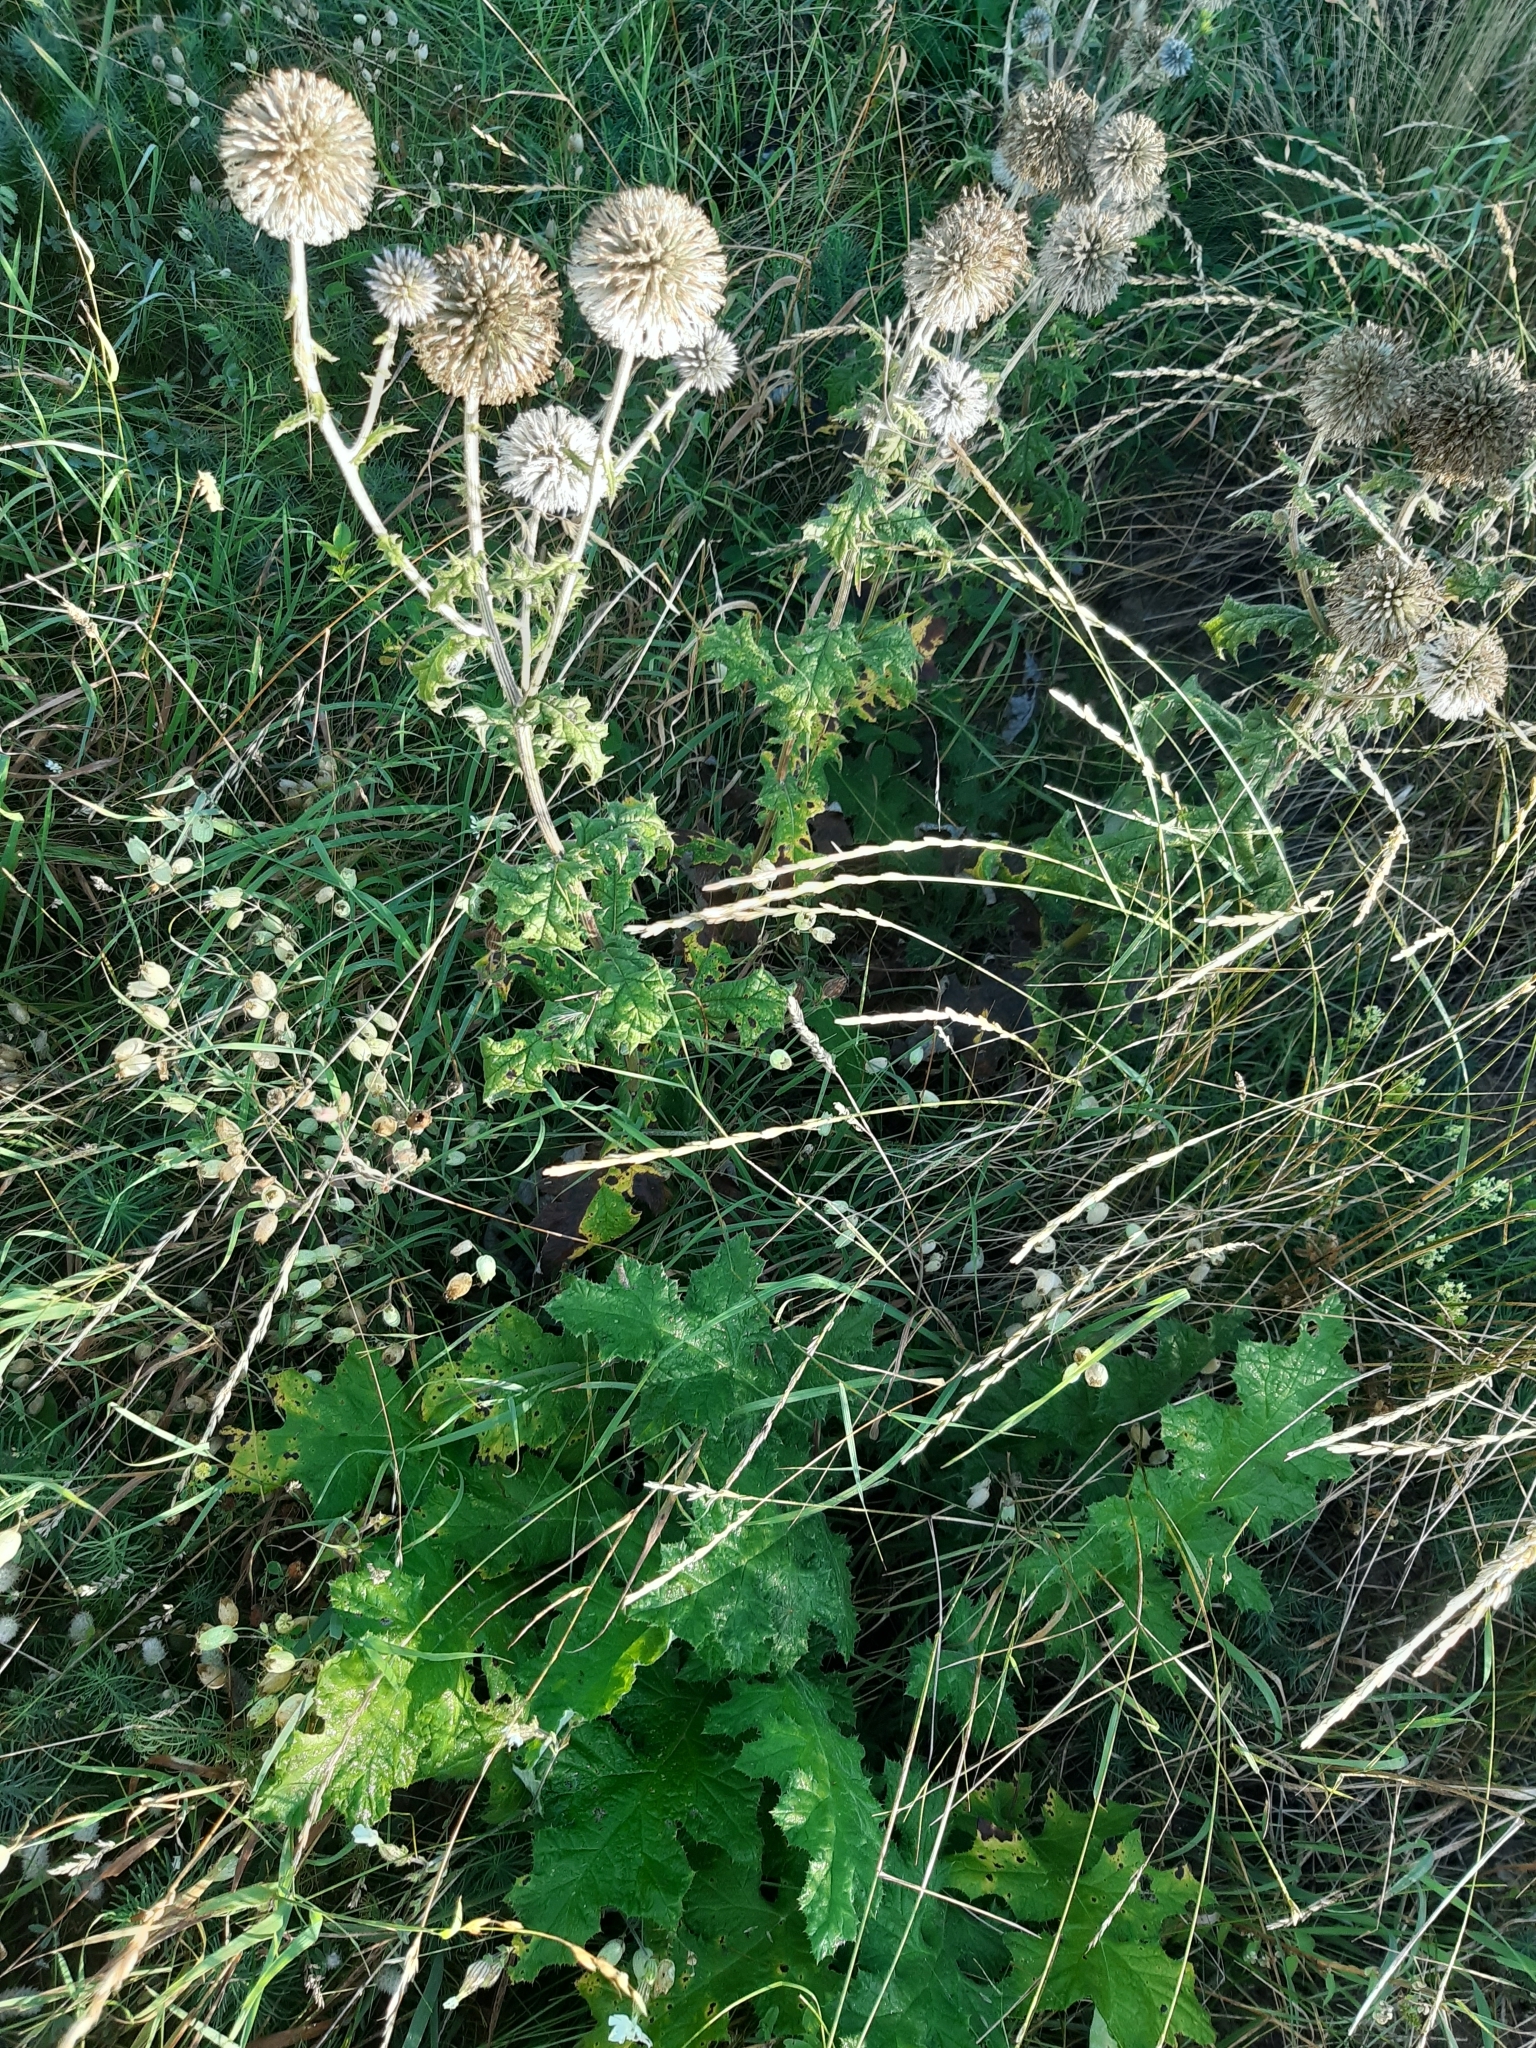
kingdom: Plantae
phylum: Tracheophyta
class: Magnoliopsida
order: Asterales
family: Asteraceae
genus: Echinops
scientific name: Echinops sphaerocephalus
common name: Glandular globe-thistle
